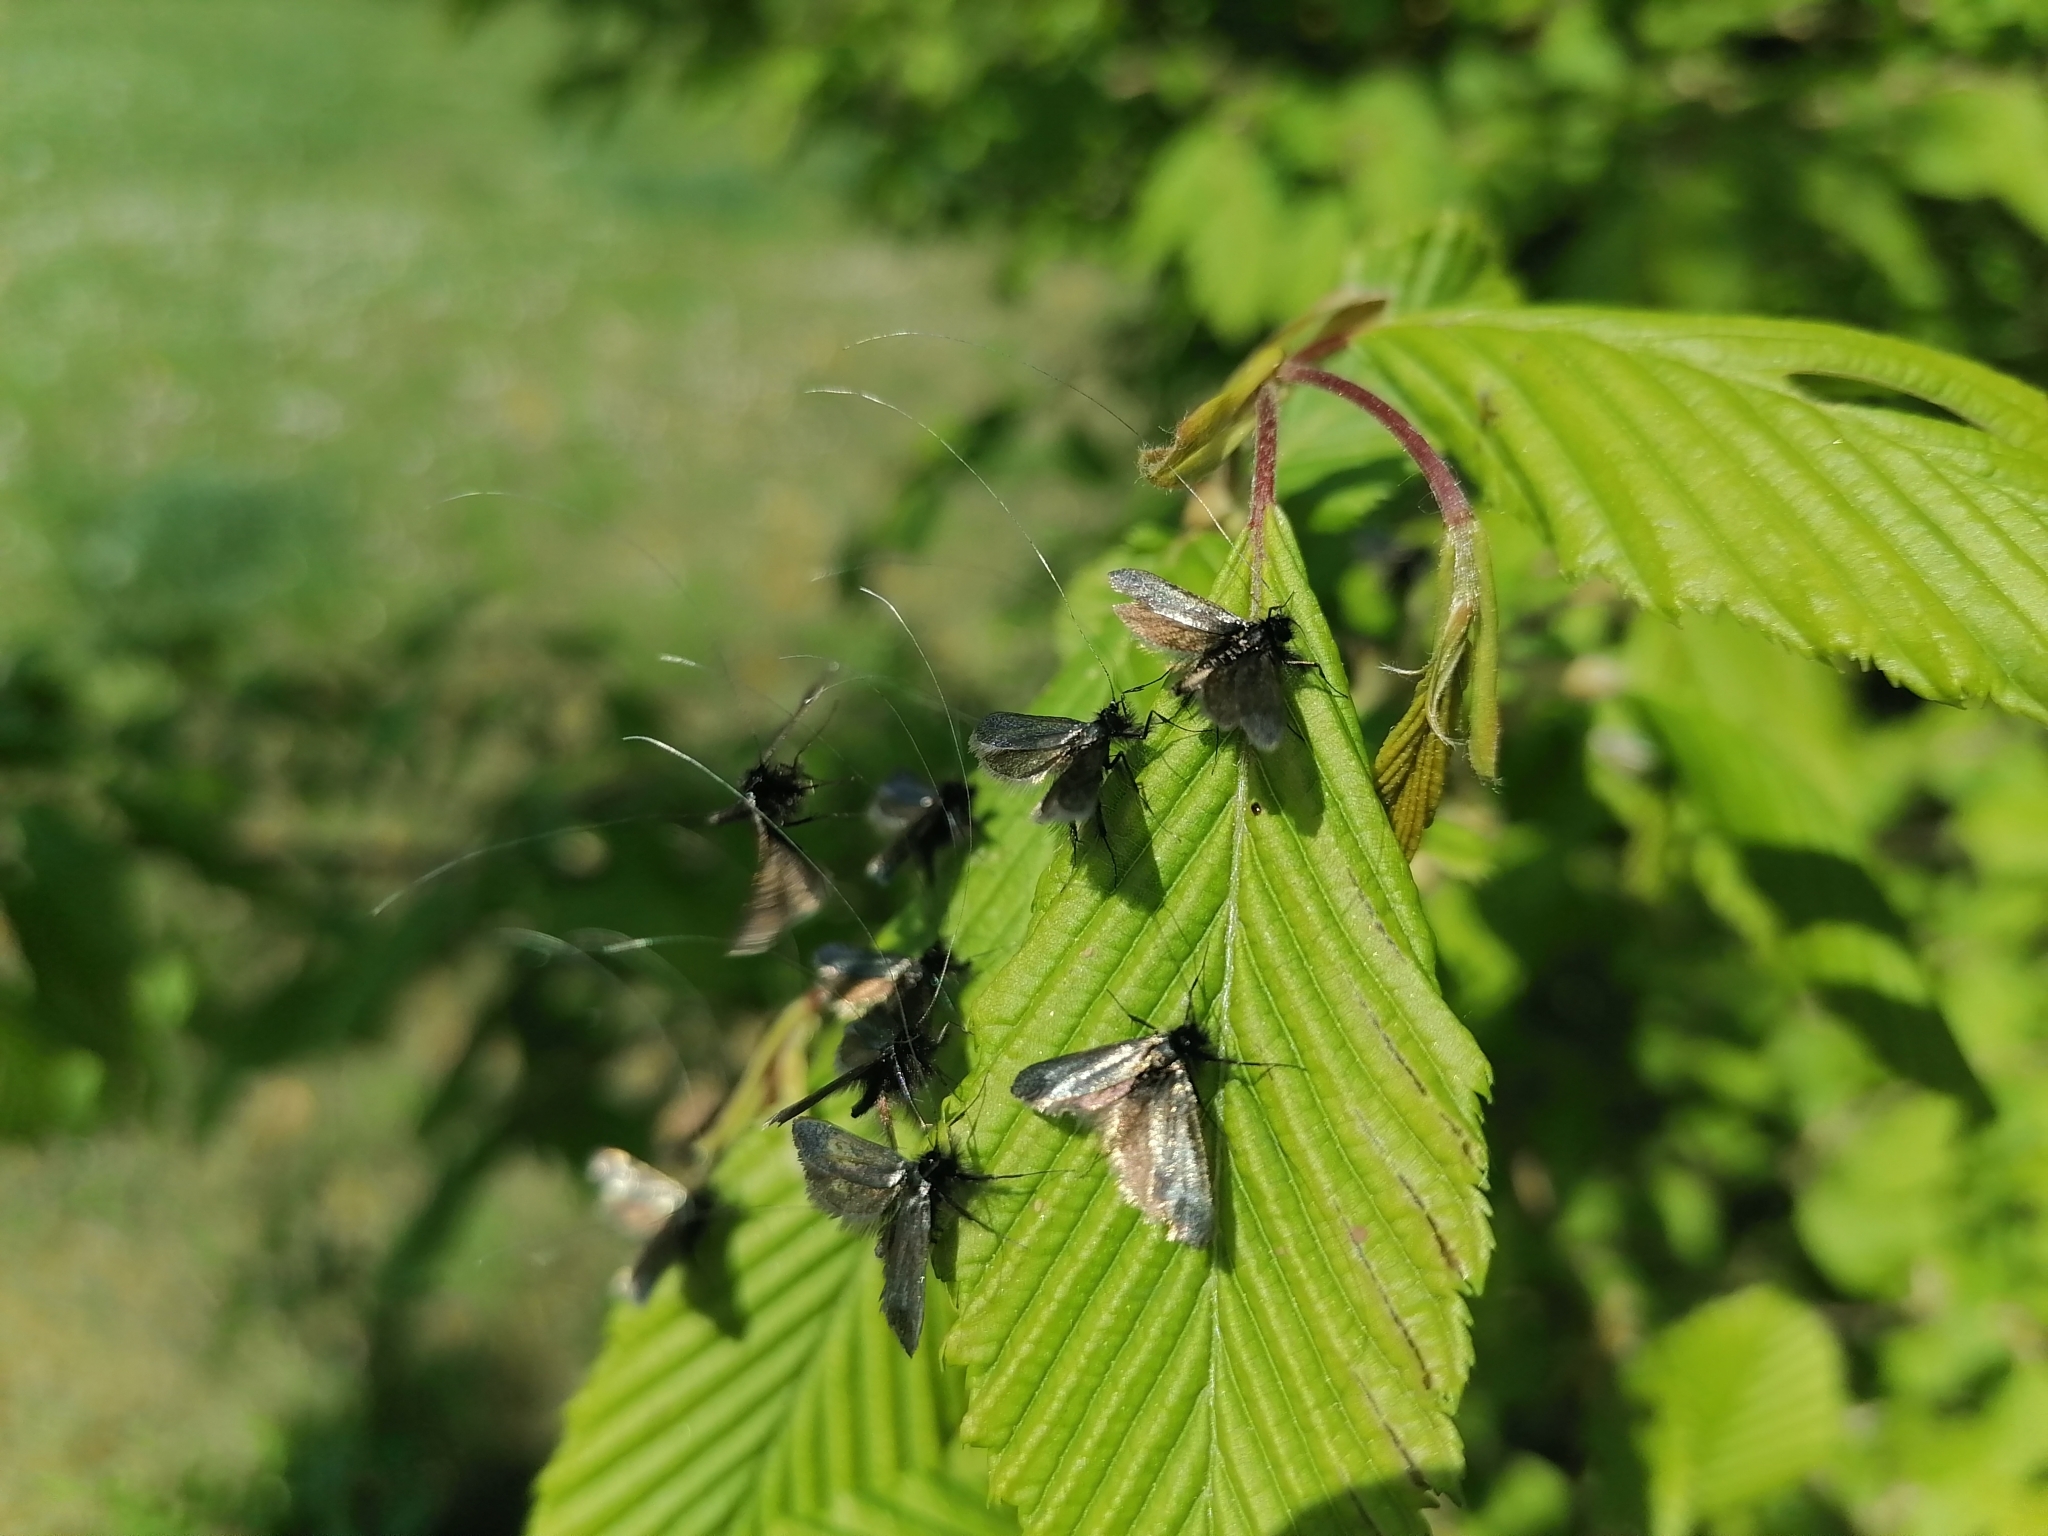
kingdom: Animalia
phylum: Arthropoda
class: Insecta
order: Lepidoptera
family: Adelidae
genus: Adela
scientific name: Adela viridella
